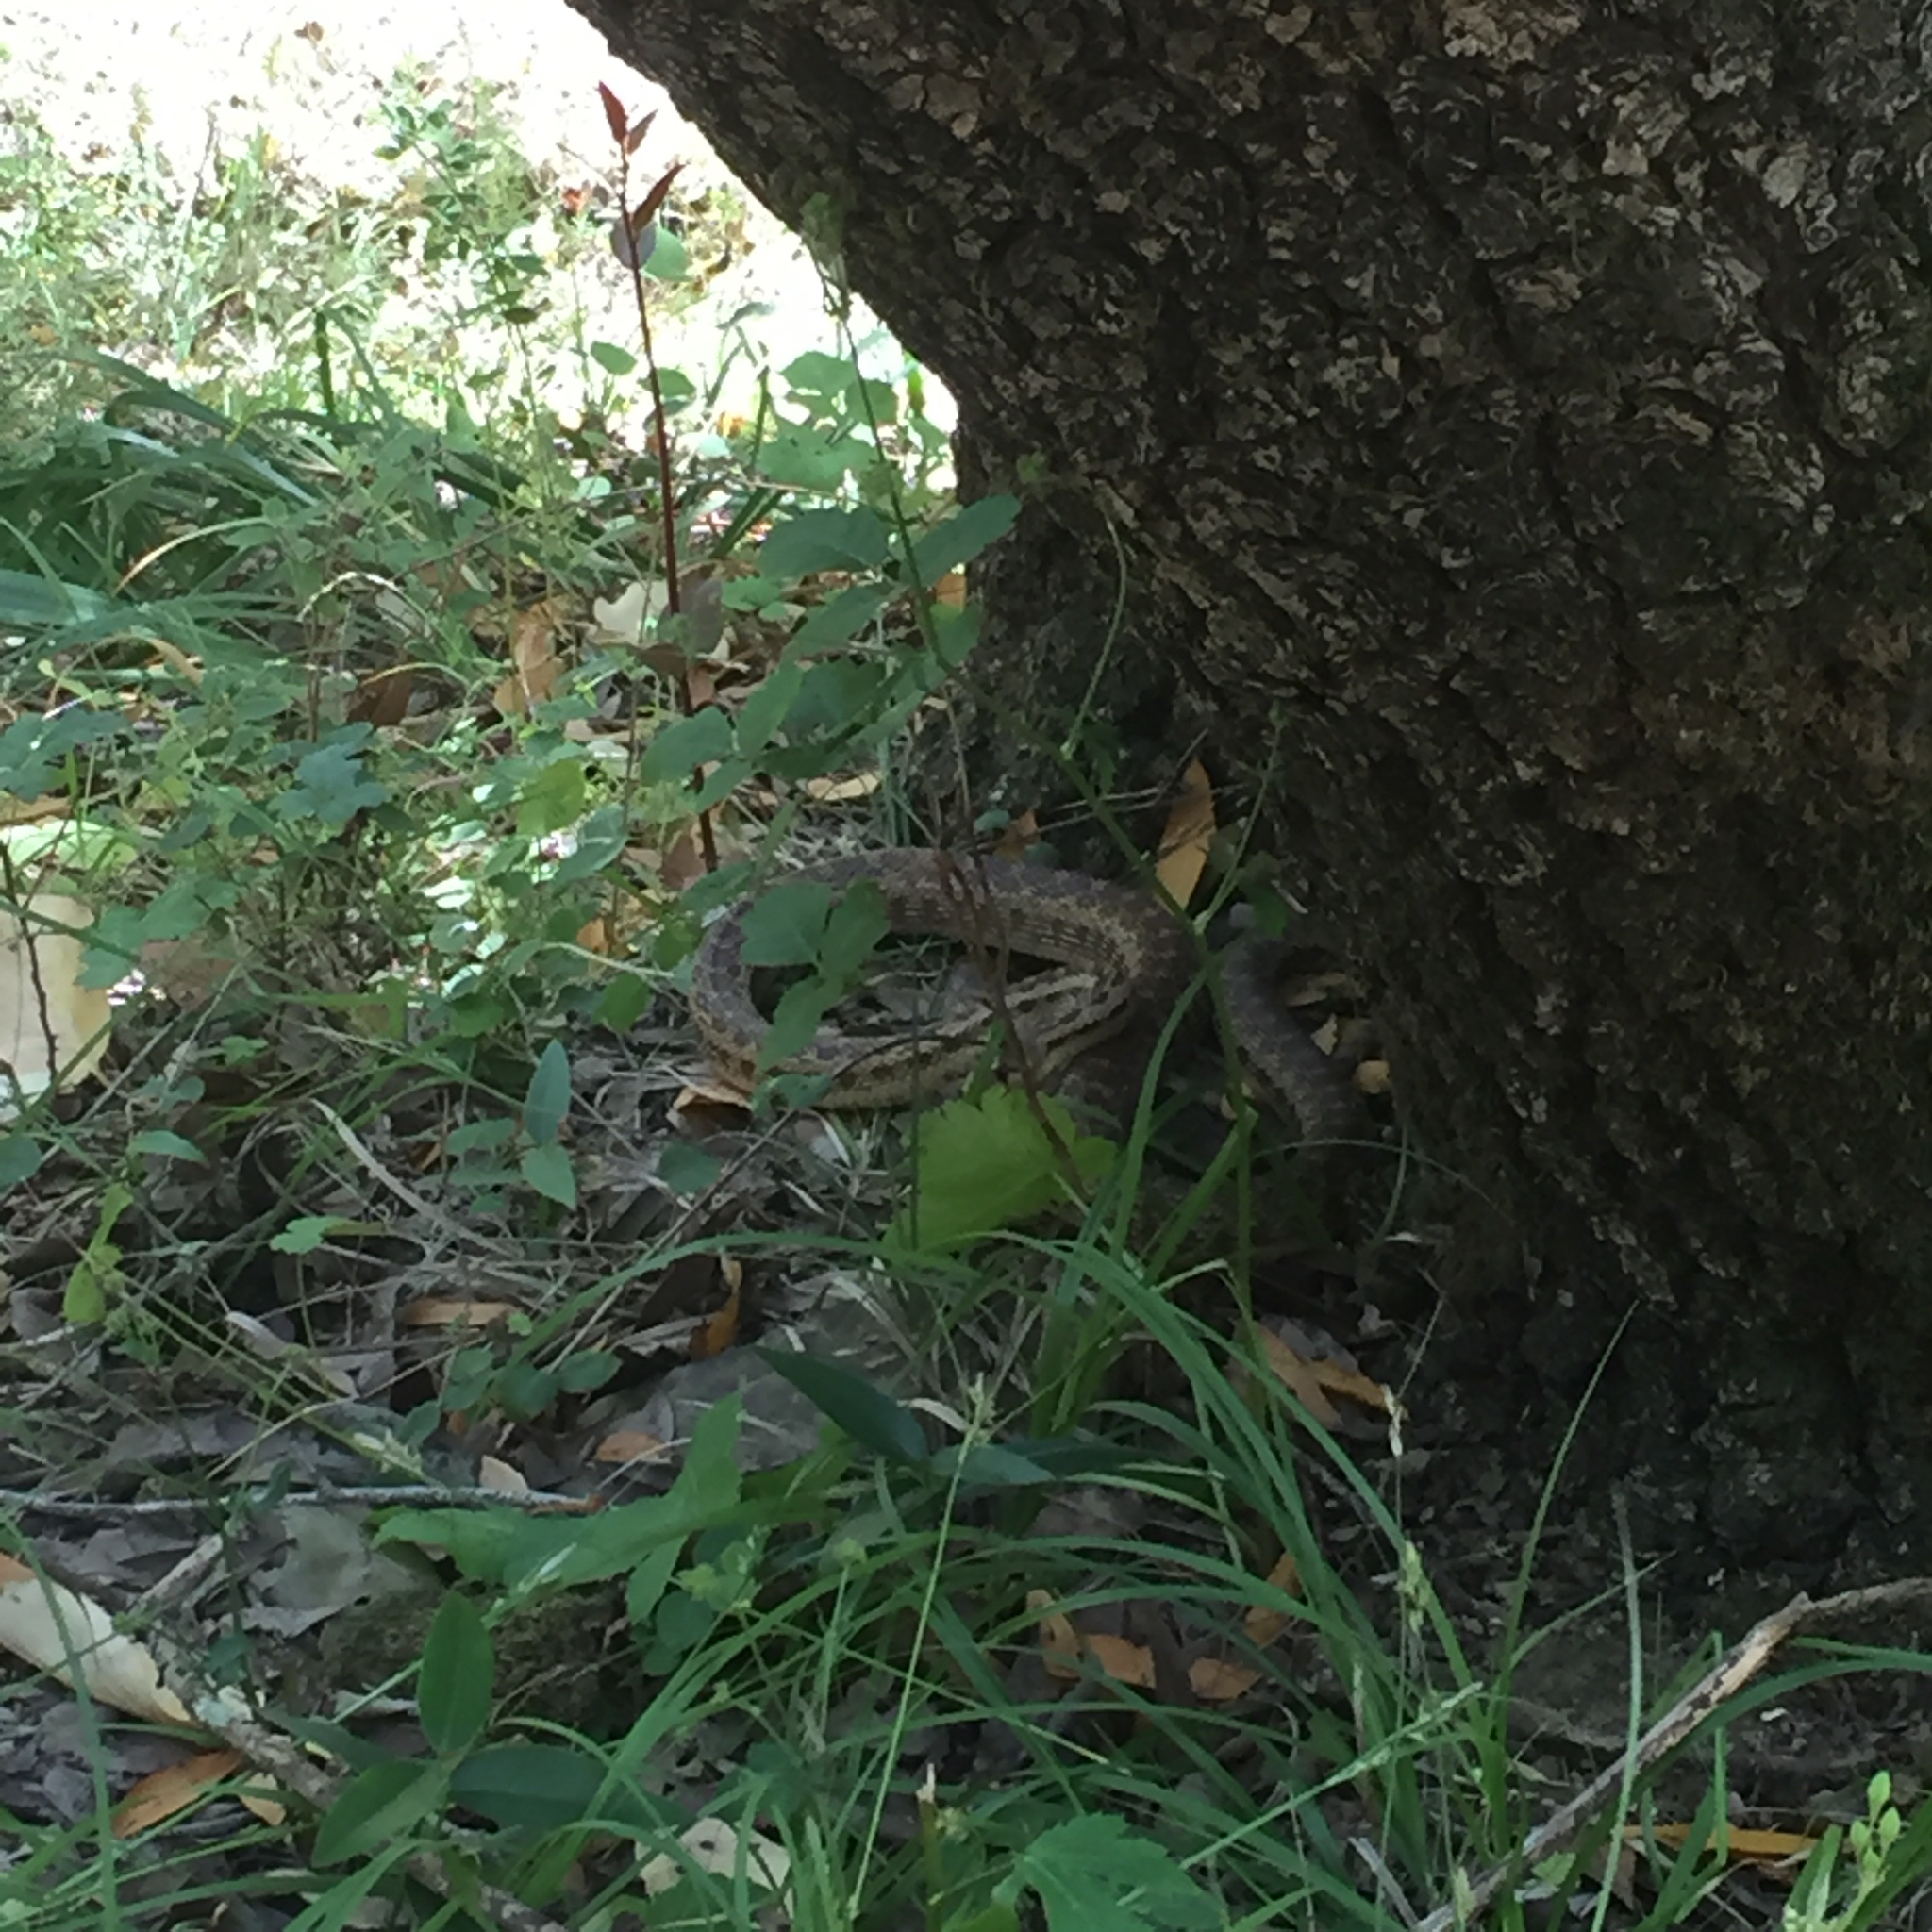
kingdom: Animalia
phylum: Chordata
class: Squamata
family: Colubridae
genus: Pituophis
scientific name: Pituophis catenifer
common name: Gopher snake
